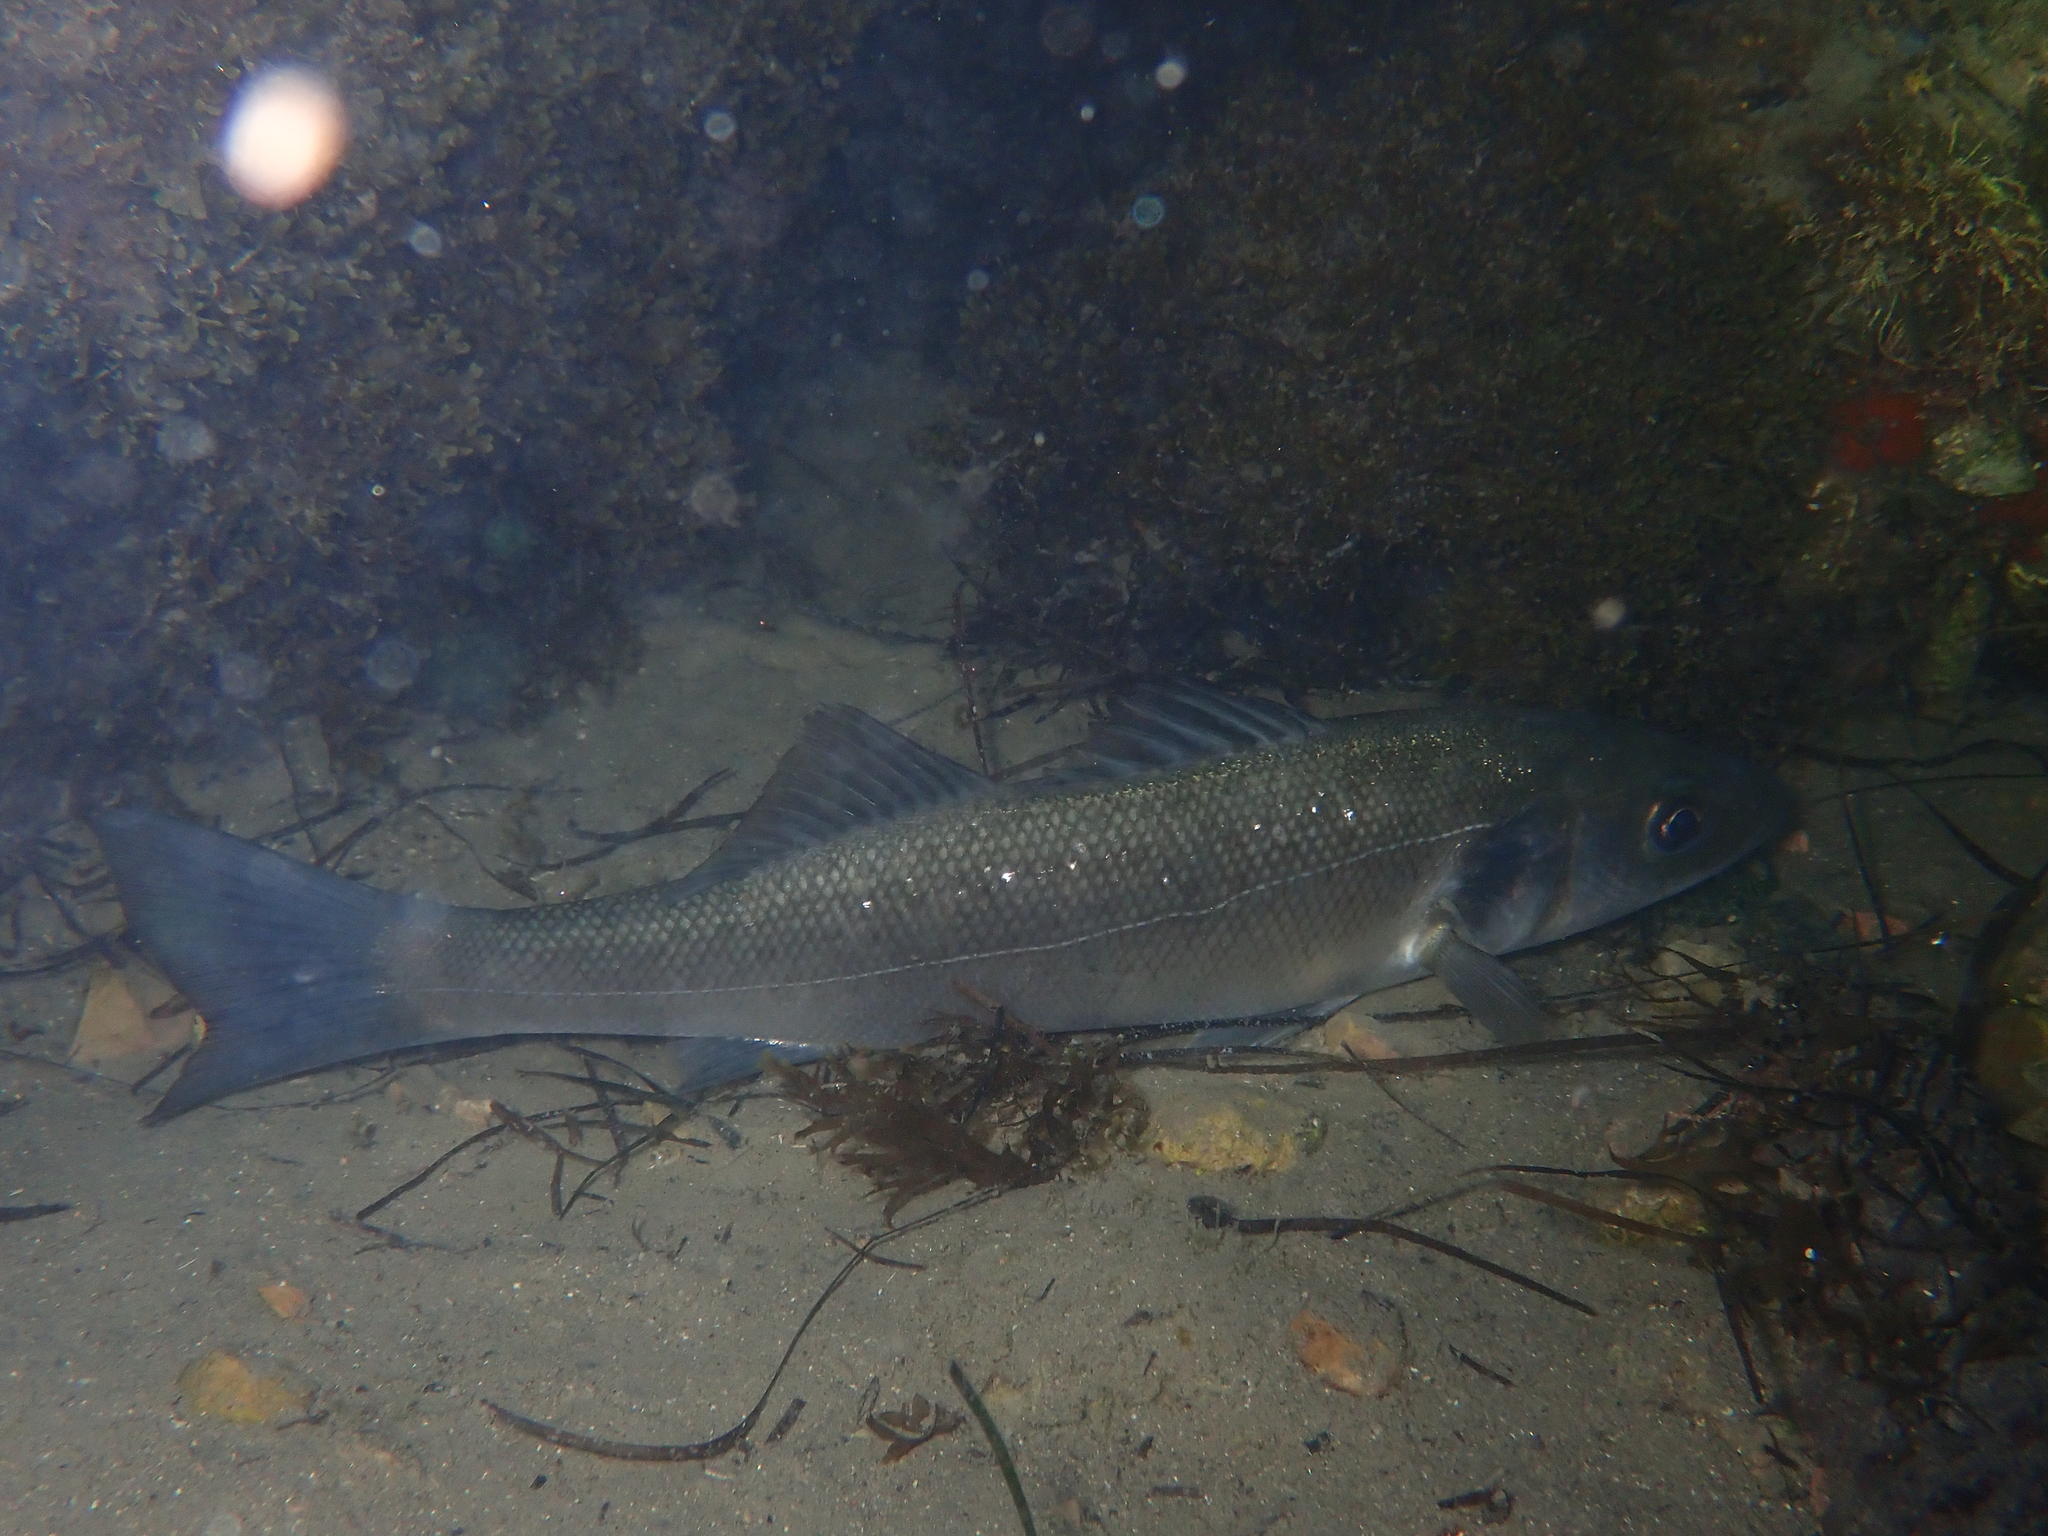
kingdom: Animalia
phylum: Chordata
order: Perciformes
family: Moronidae
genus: Dicentrarchus
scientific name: Dicentrarchus labrax
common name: European seabass
